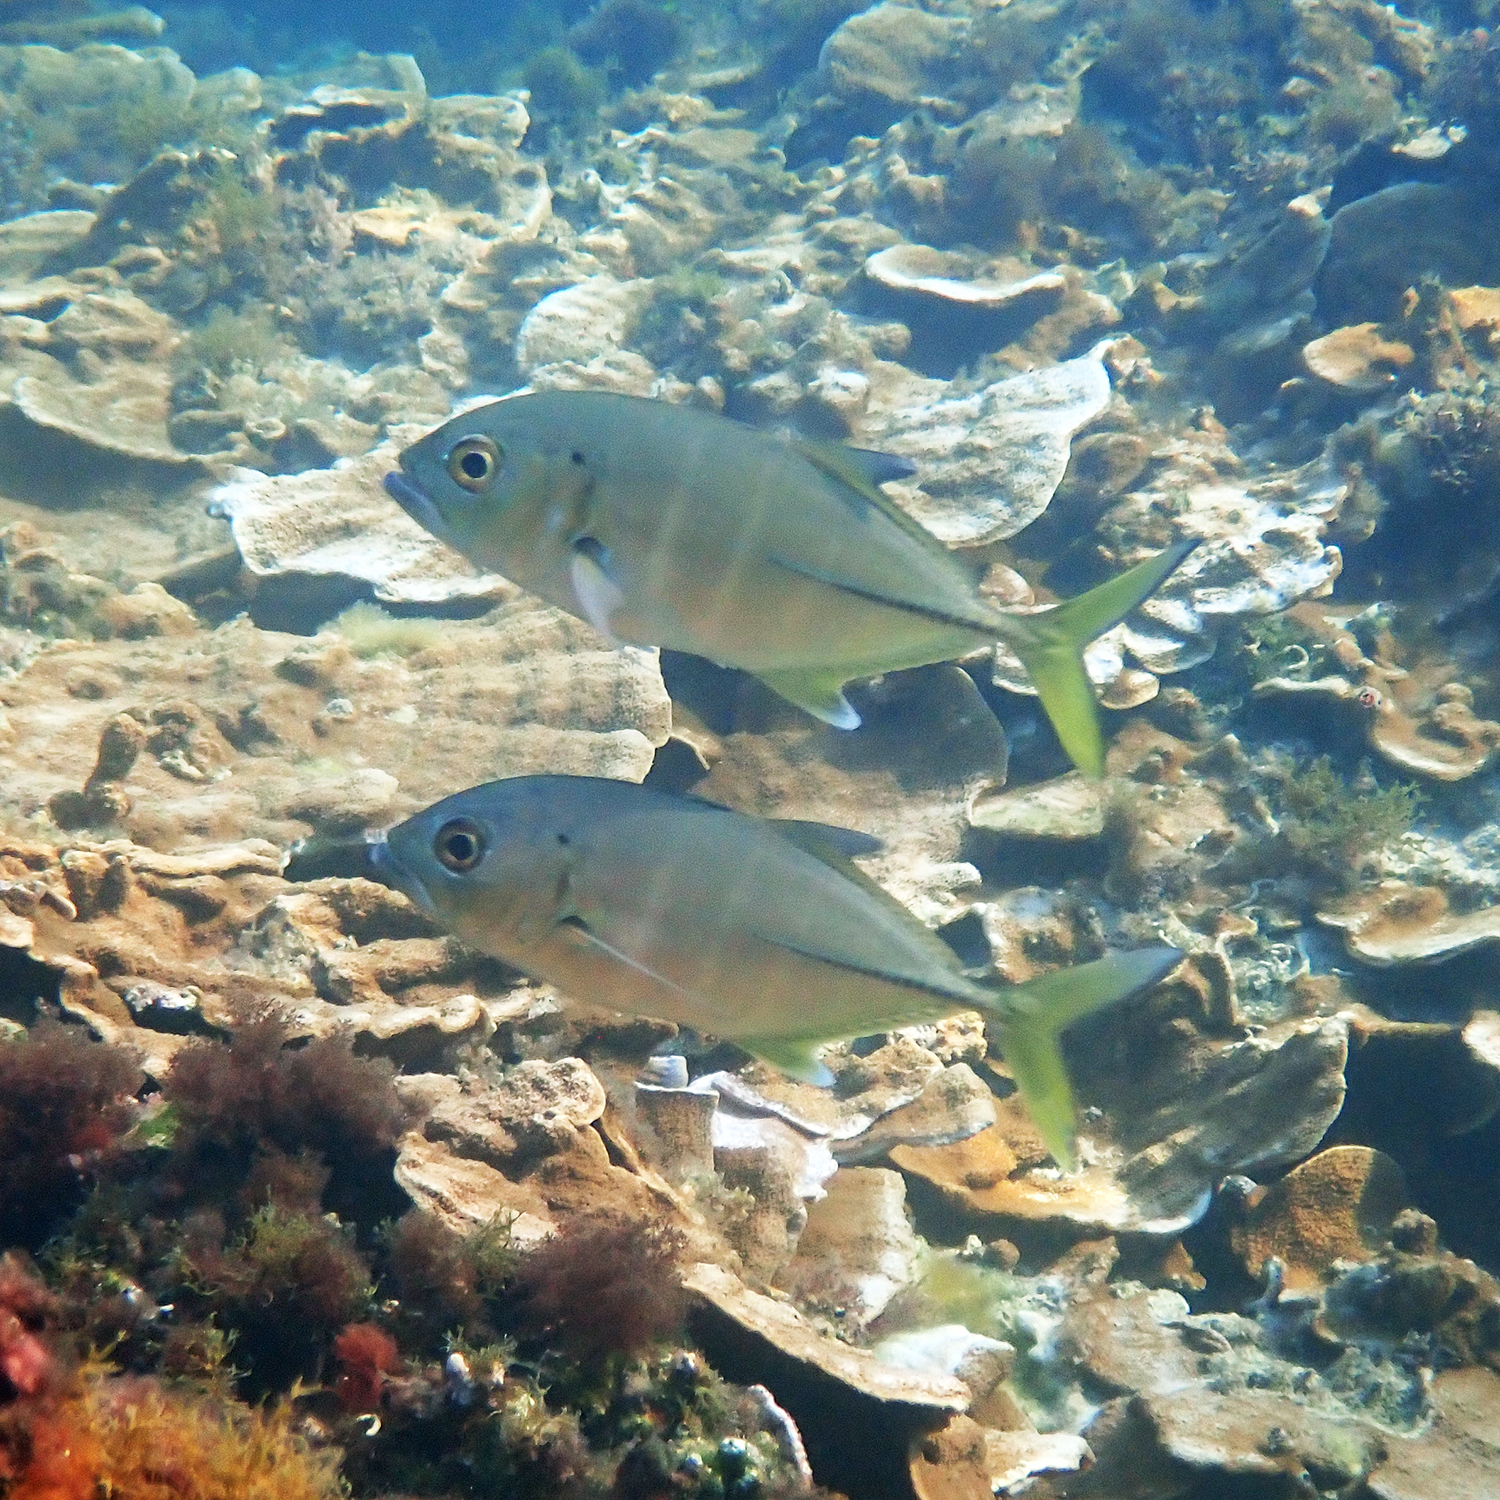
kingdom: Animalia
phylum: Chordata
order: Perciformes
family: Carangidae
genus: Caranx
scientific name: Caranx sexfasciatus
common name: Bigeye trevally
